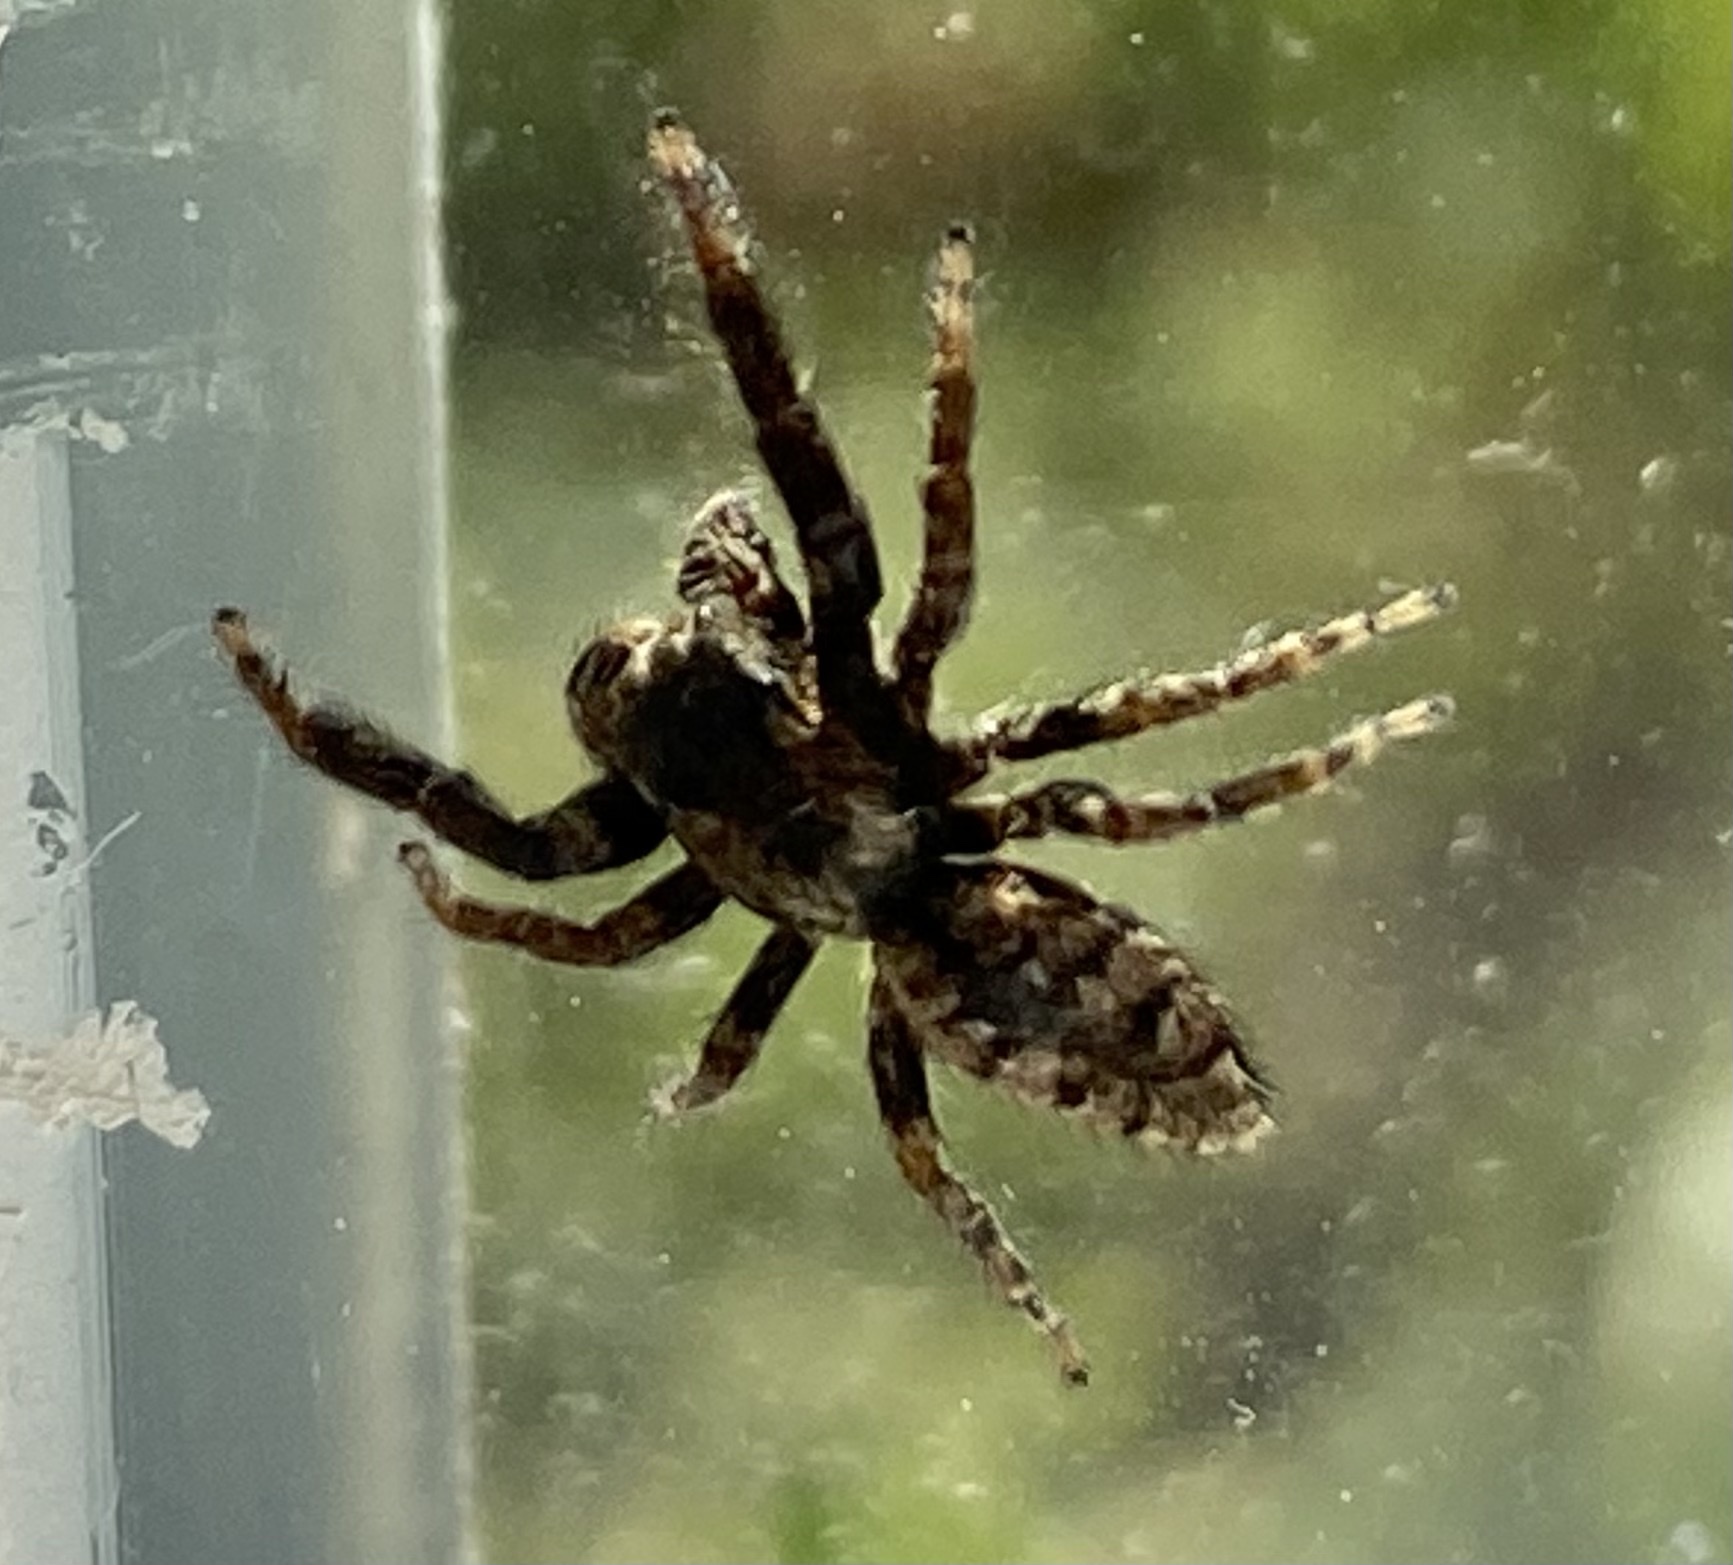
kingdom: Animalia
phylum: Arthropoda
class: Arachnida
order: Araneae
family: Salticidae
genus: Marpissa
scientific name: Marpissa muscosa
